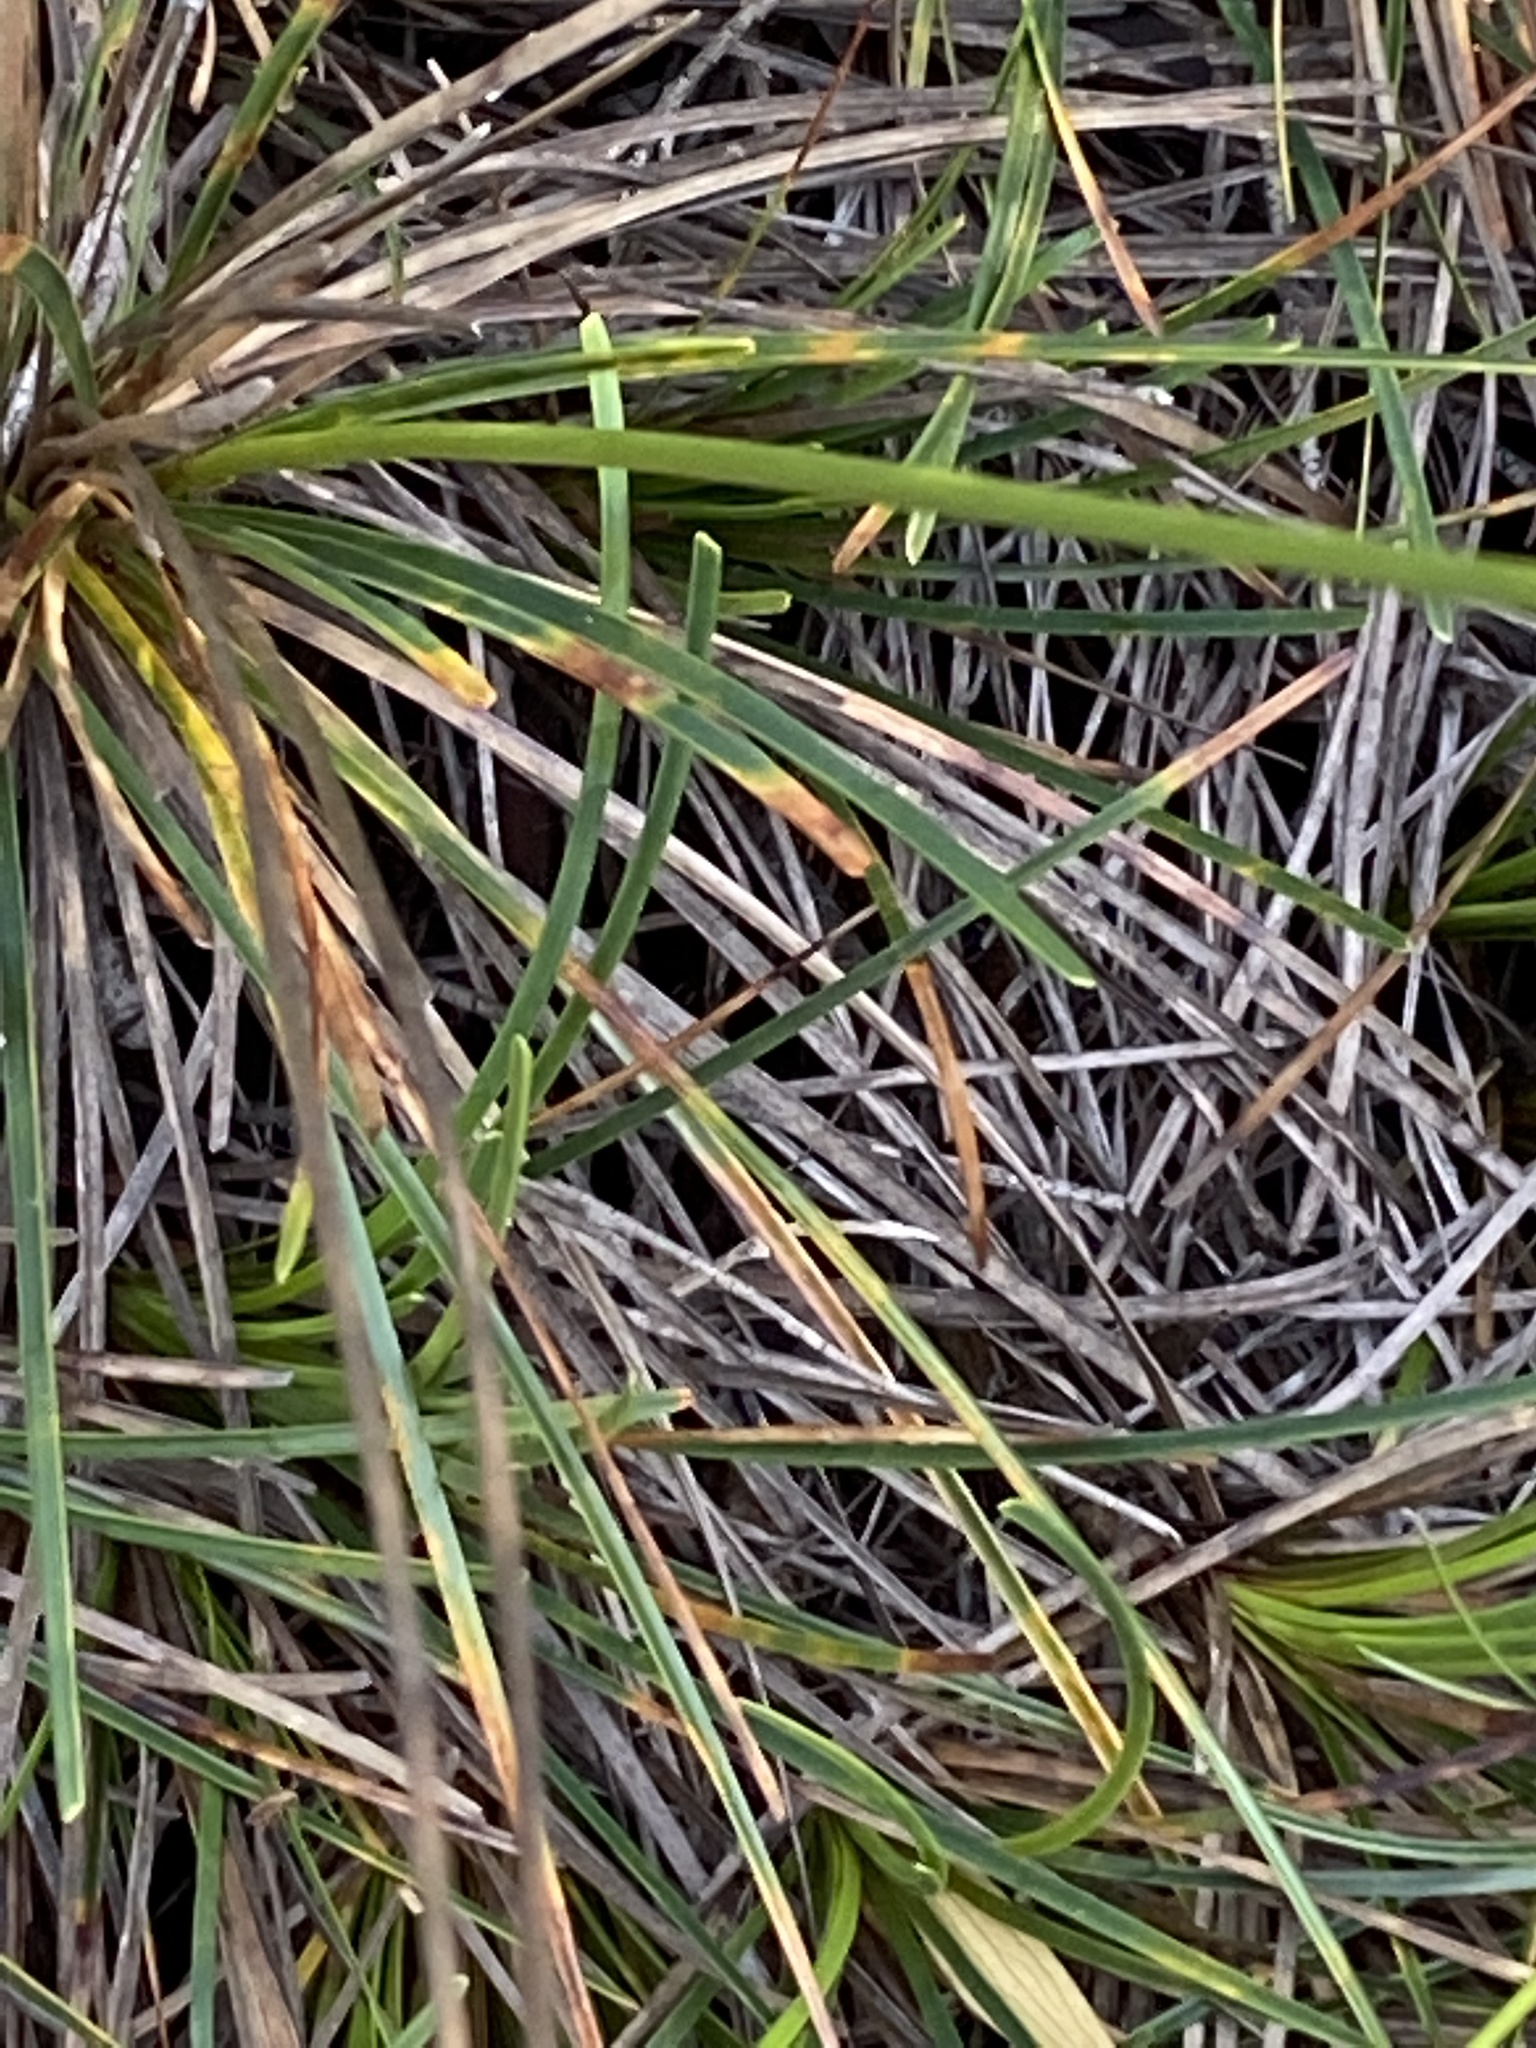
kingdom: Plantae
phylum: Tracheophyta
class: Liliopsida
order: Poales
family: Cyperaceae
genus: Ficinia
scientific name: Ficinia praemorsa
